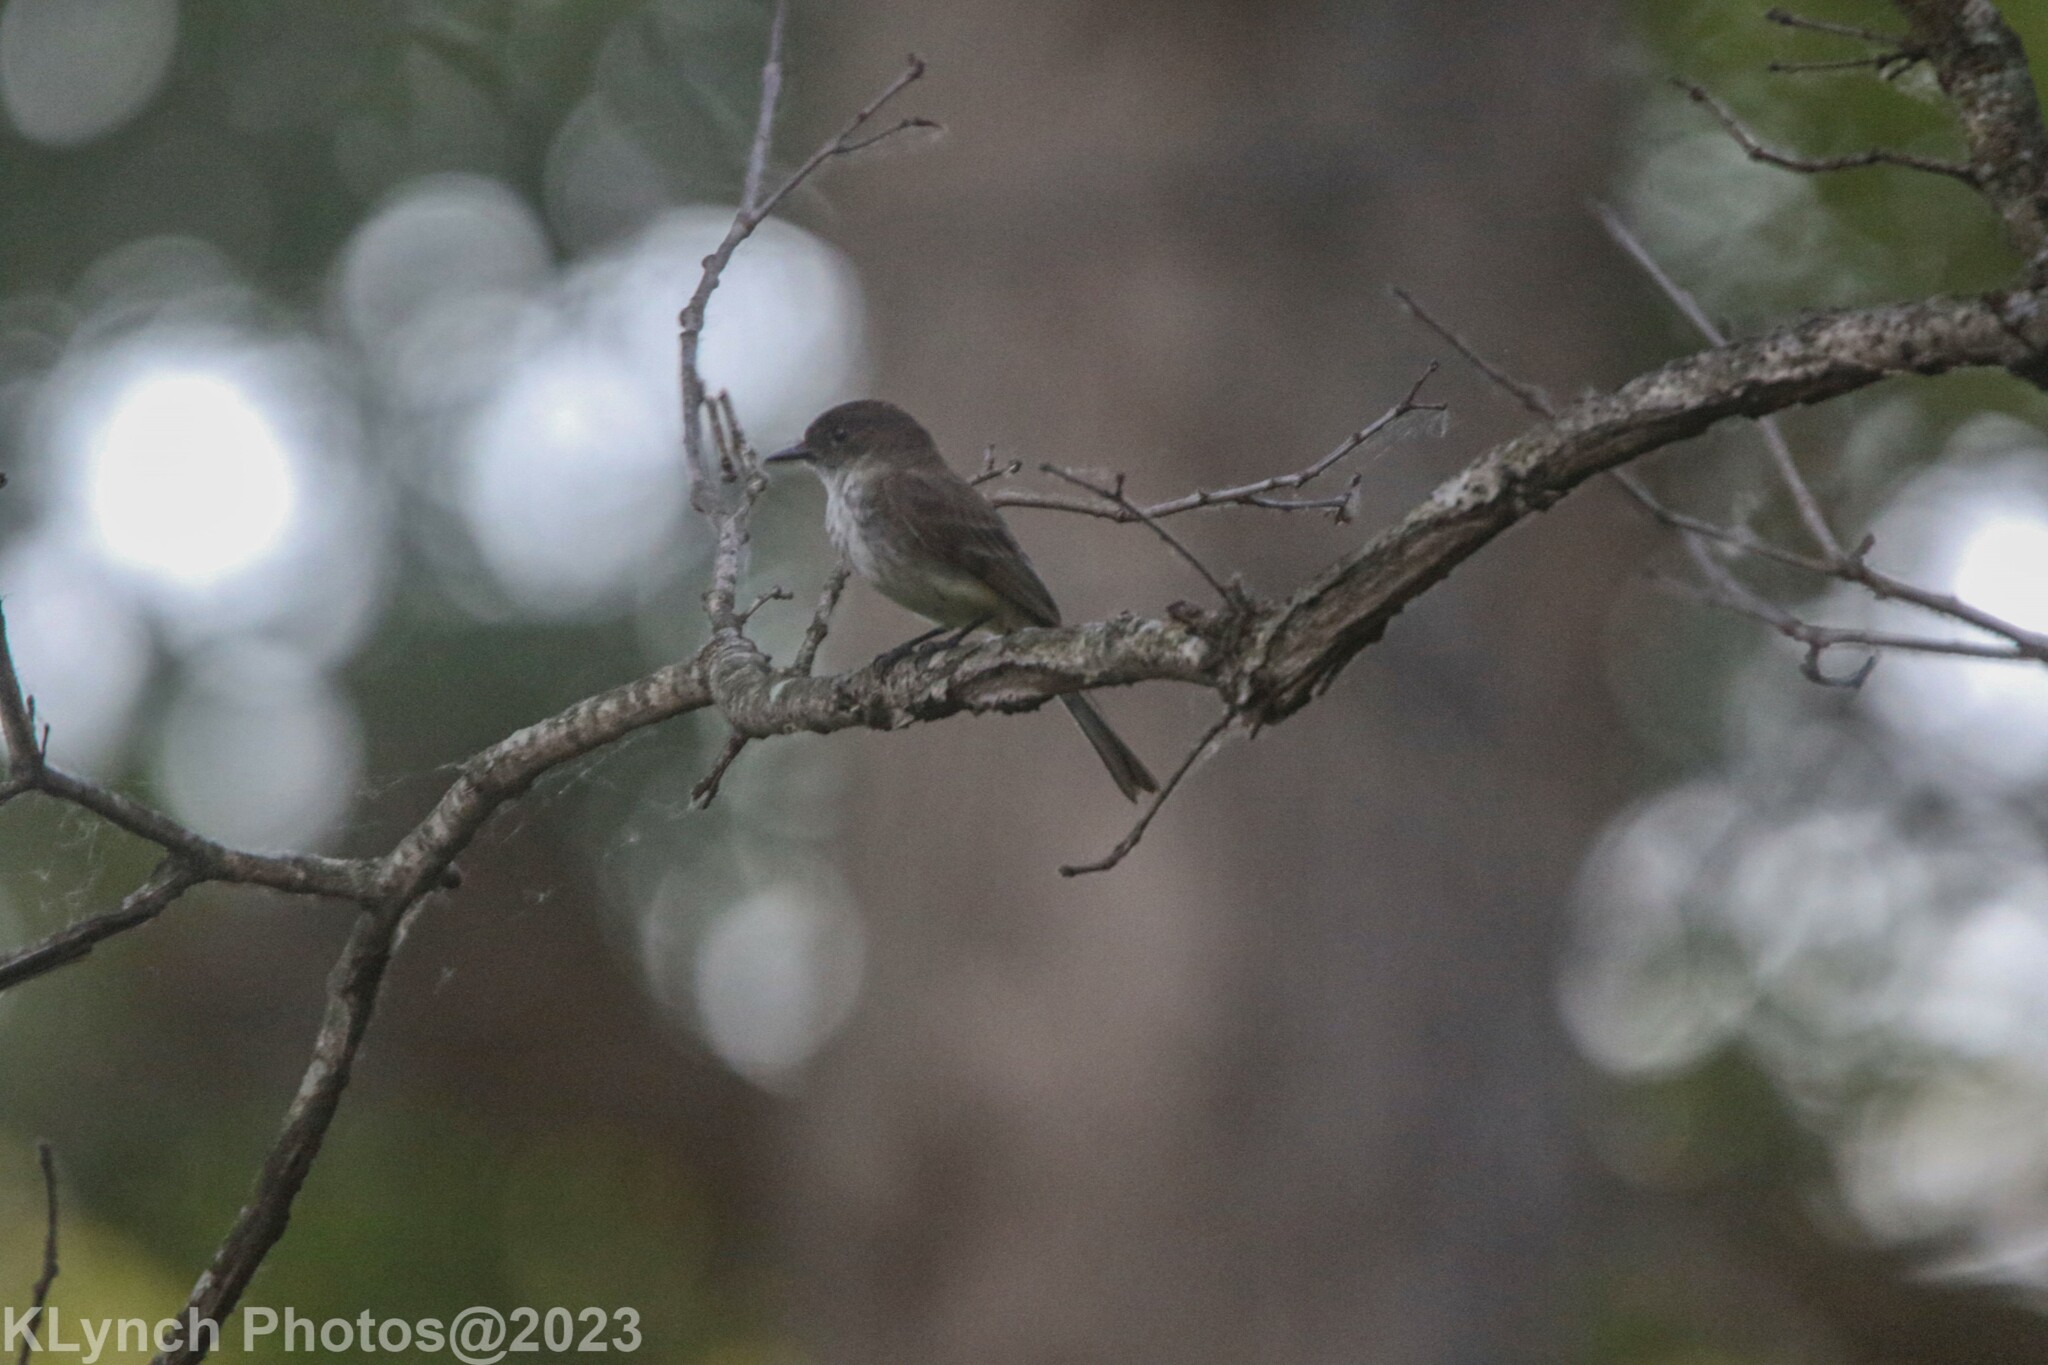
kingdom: Animalia
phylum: Chordata
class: Aves
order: Passeriformes
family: Tyrannidae
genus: Sayornis
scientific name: Sayornis phoebe
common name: Eastern phoebe
